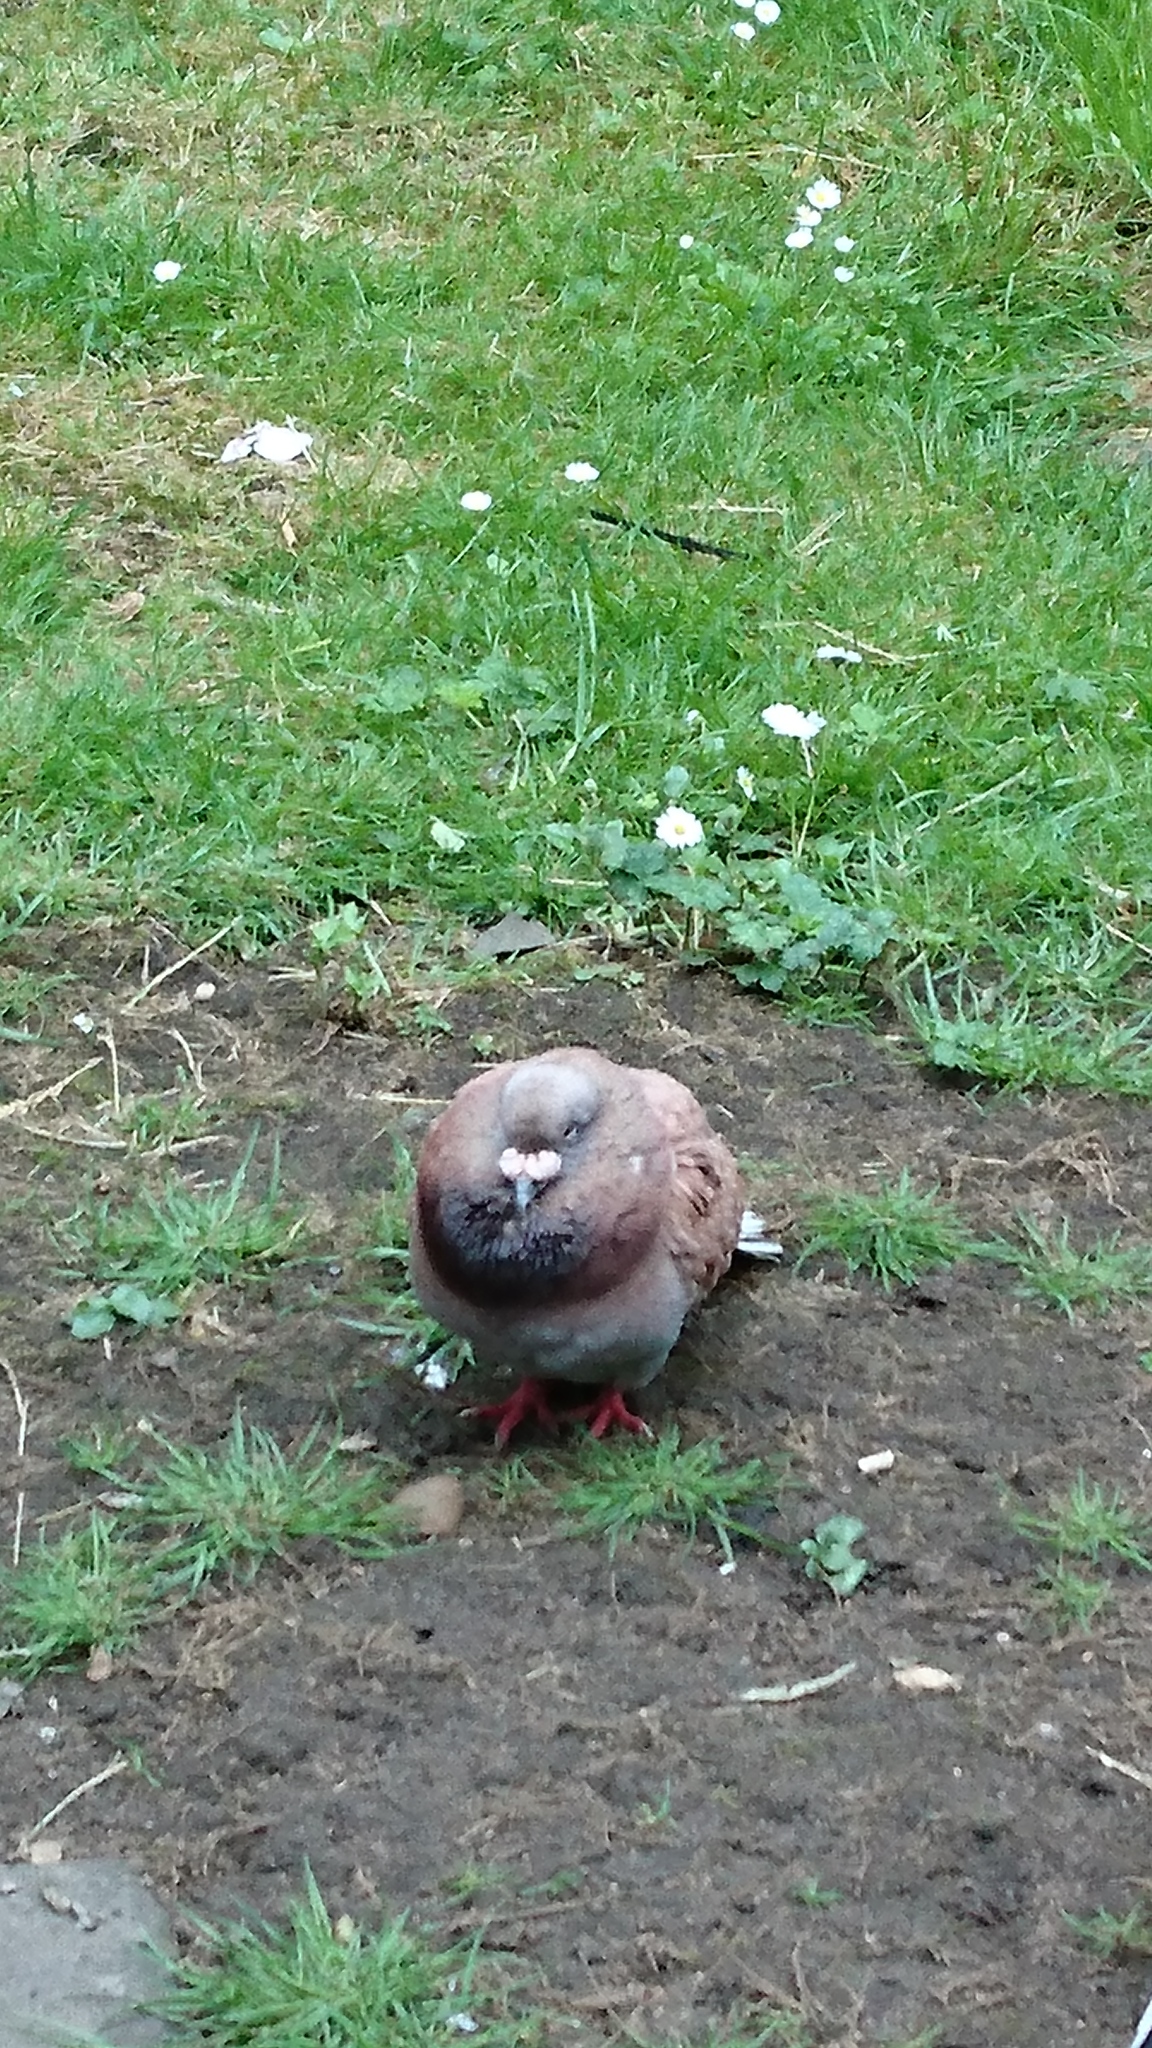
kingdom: Animalia
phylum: Chordata
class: Aves
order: Columbiformes
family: Columbidae
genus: Columba
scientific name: Columba livia
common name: Rock pigeon
